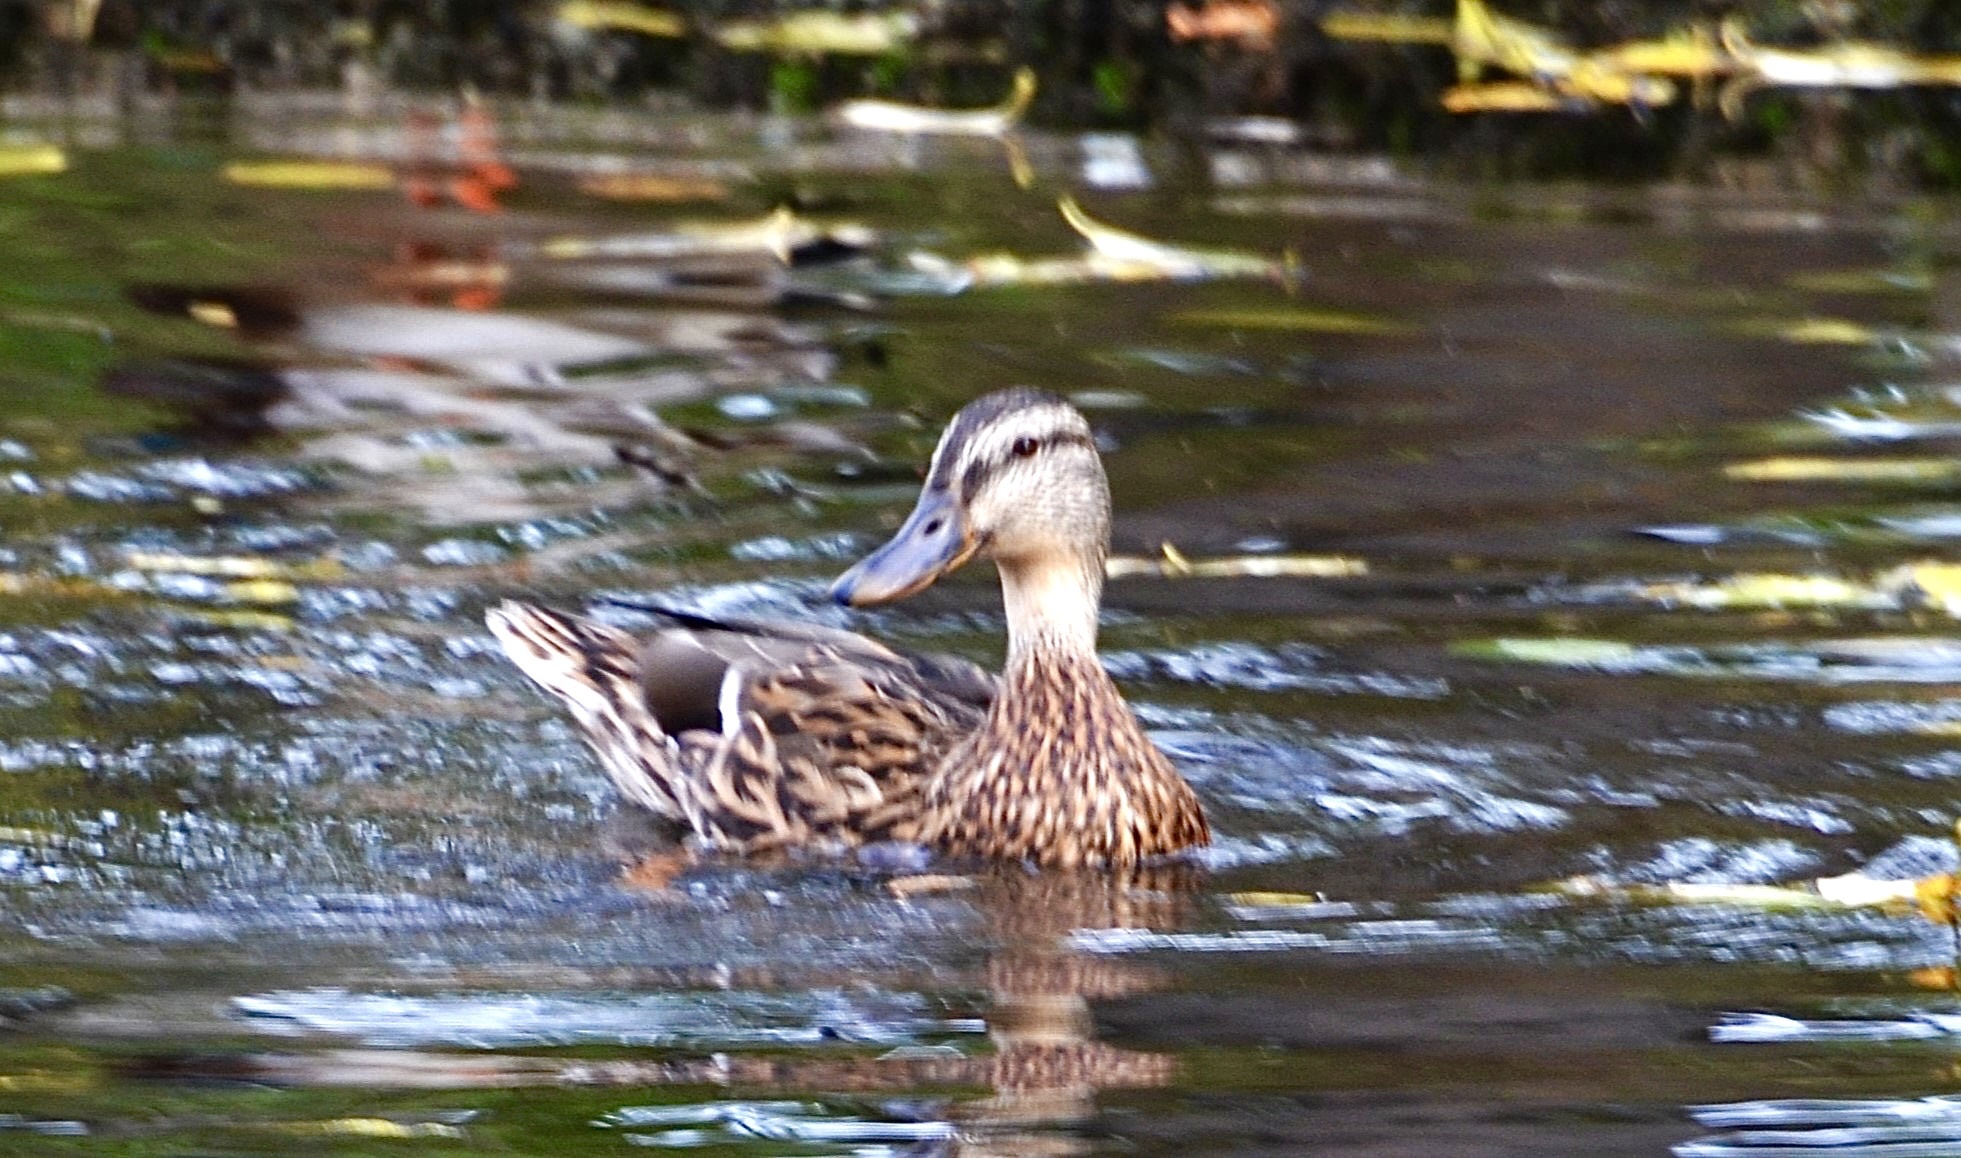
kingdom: Animalia
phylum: Chordata
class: Aves
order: Anseriformes
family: Anatidae
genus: Anas
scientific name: Anas platyrhynchos
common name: Mallard
